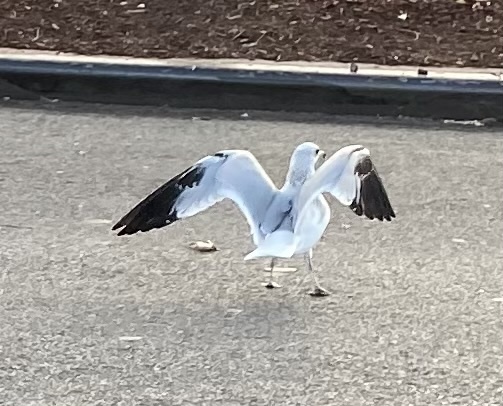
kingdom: Animalia
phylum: Chordata
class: Aves
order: Charadriiformes
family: Laridae
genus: Larus
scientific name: Larus delawarensis
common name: Ring-billed gull
